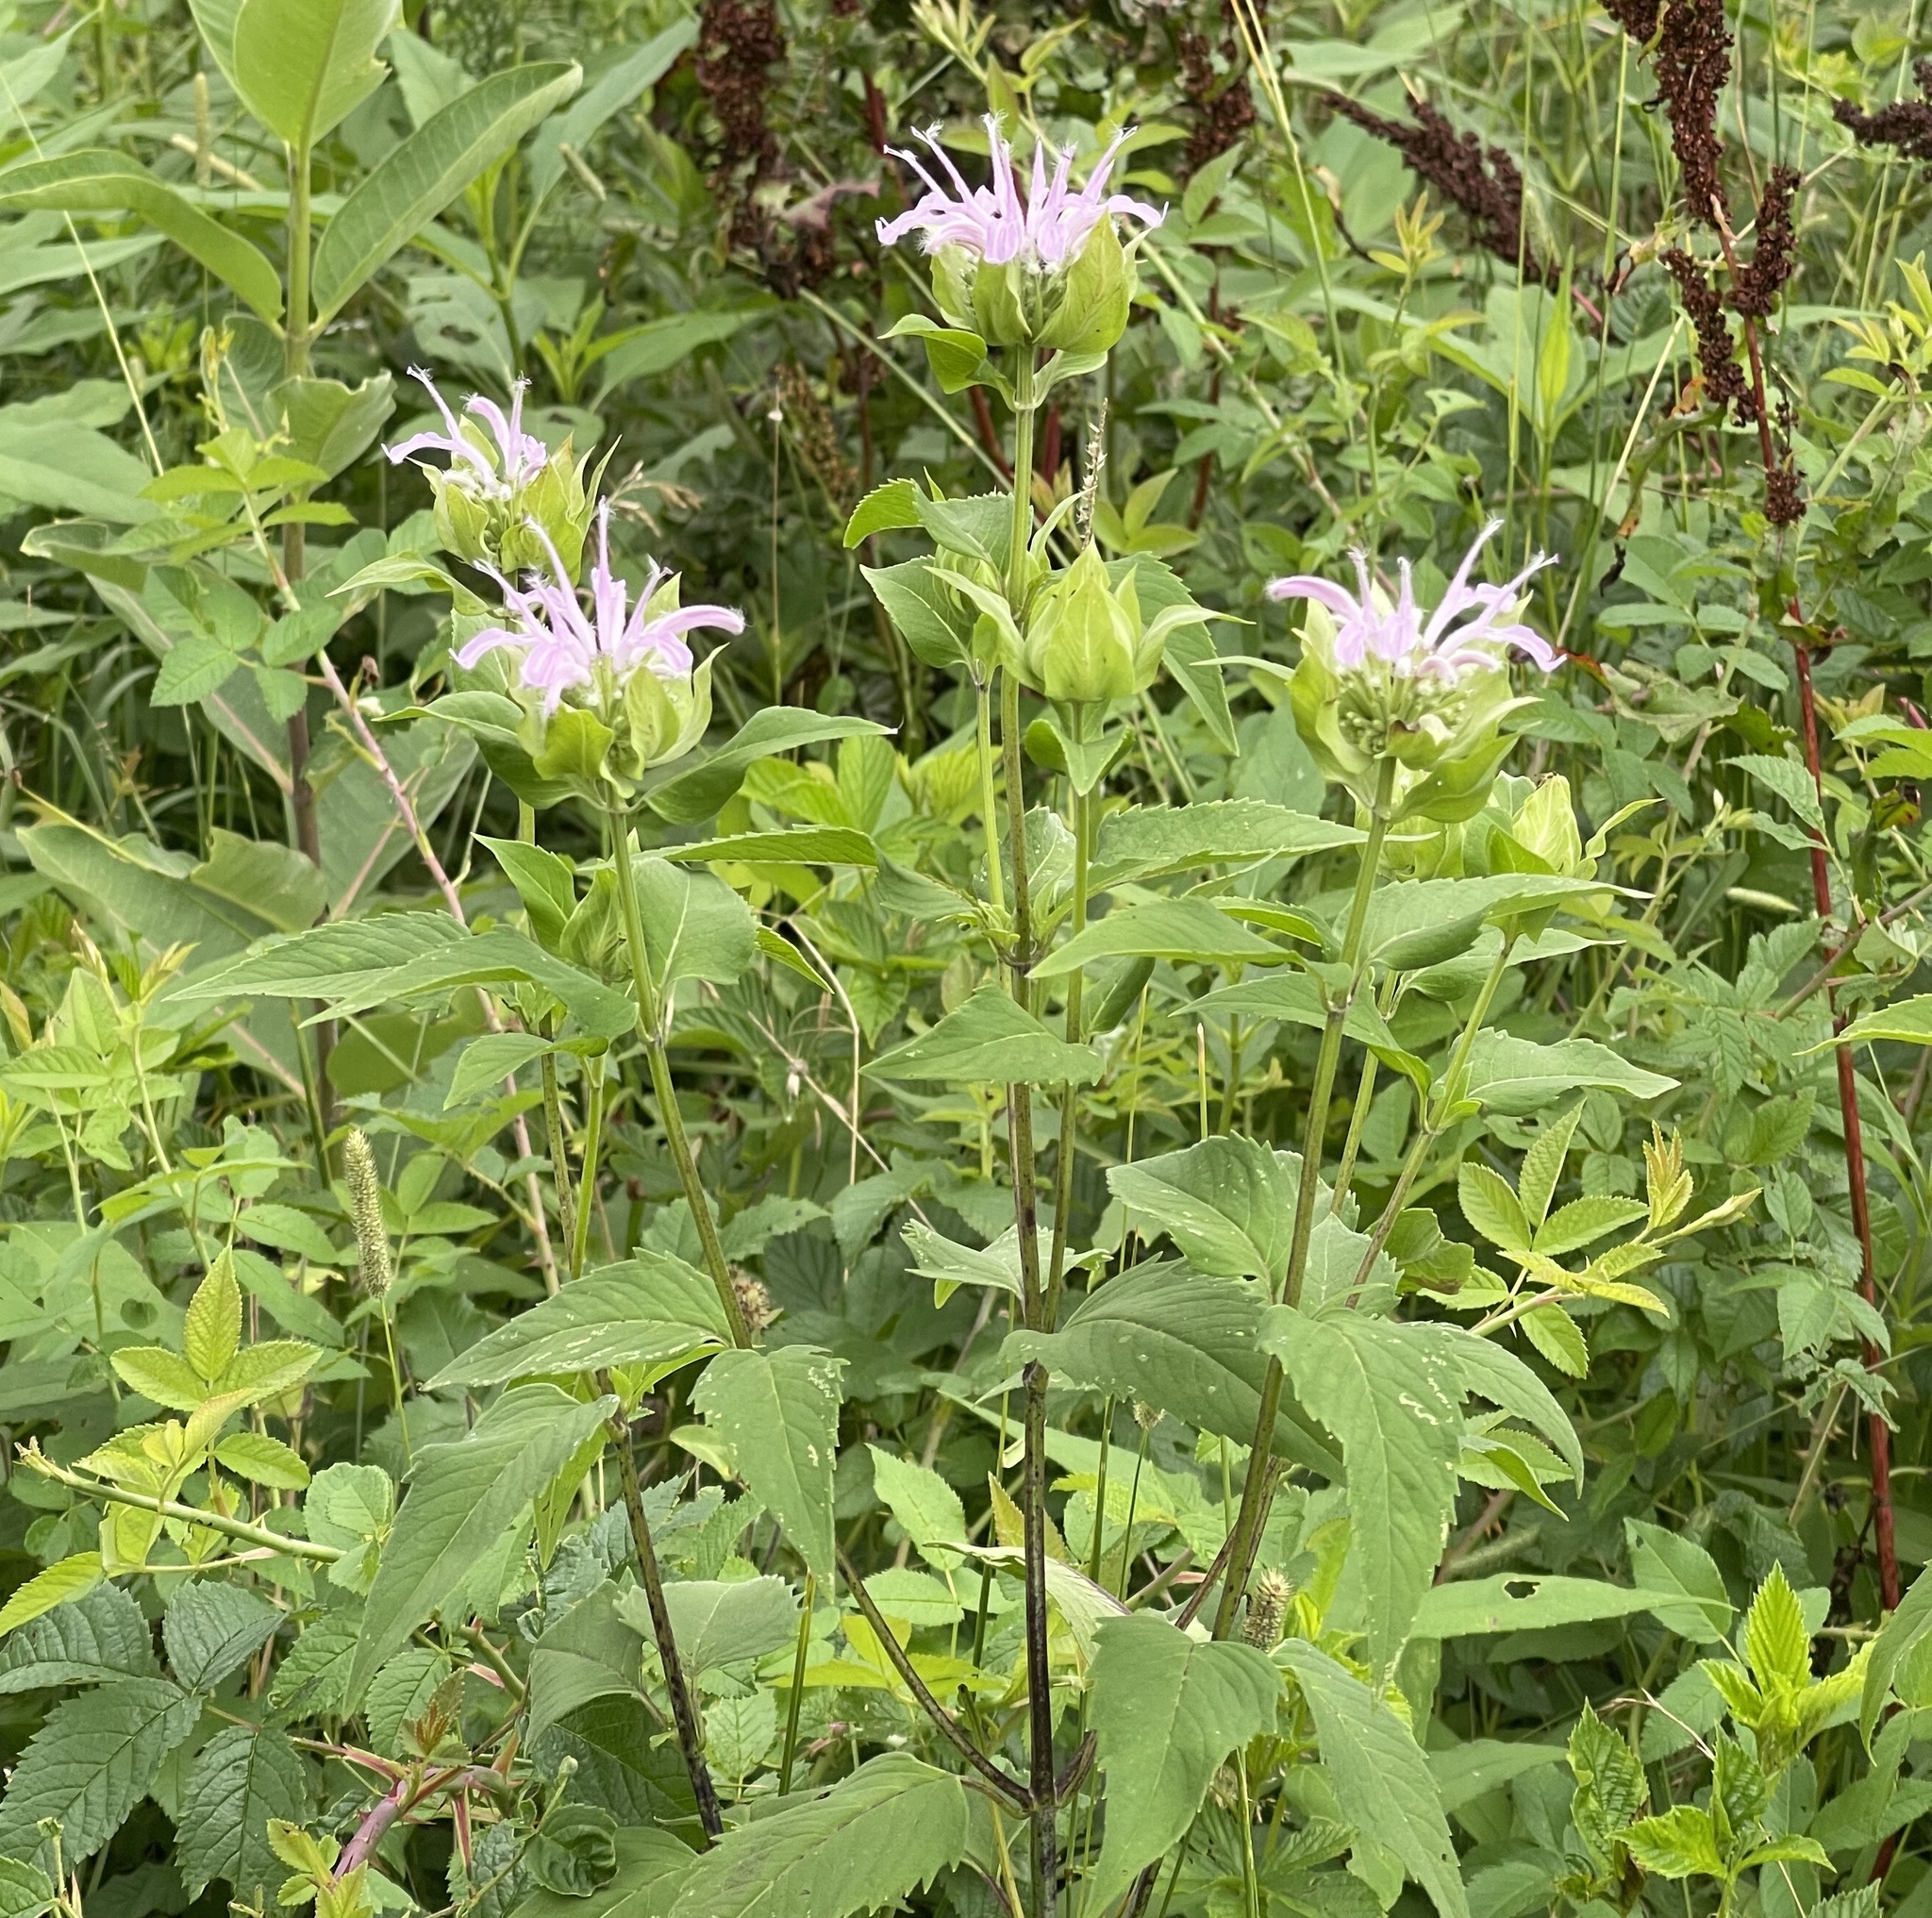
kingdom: Plantae
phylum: Tracheophyta
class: Magnoliopsida
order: Lamiales
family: Lamiaceae
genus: Monarda
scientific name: Monarda fistulosa
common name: Purple beebalm
